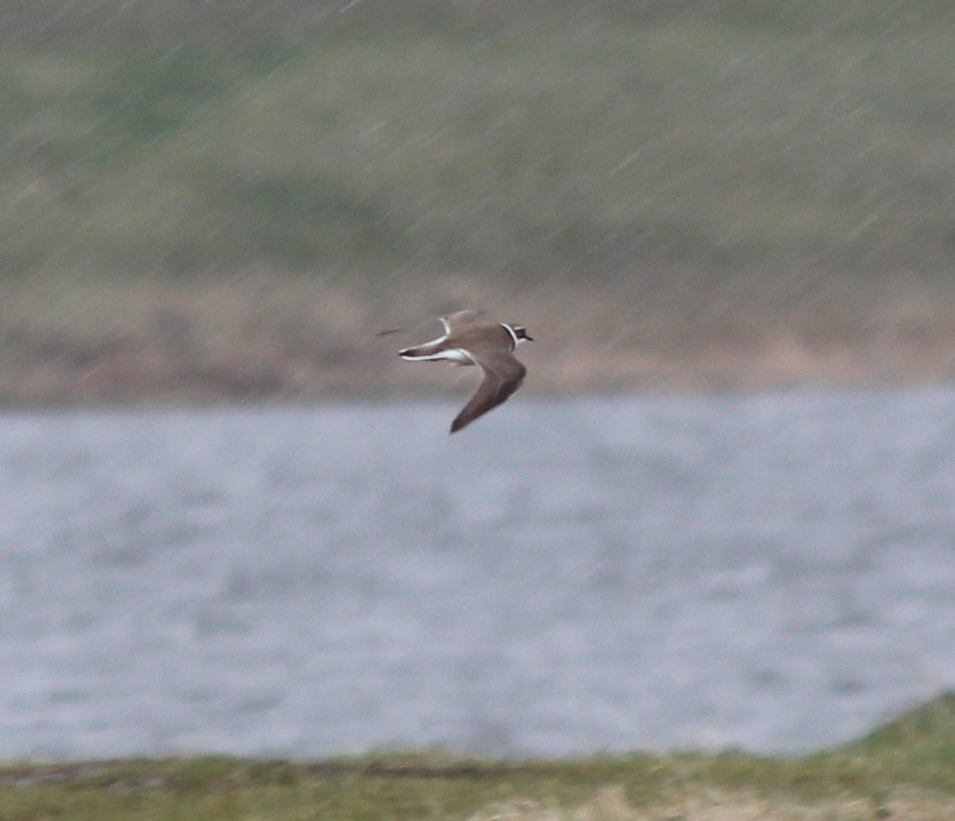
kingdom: Animalia
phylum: Chordata
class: Aves
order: Charadriiformes
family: Charadriidae
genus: Charadrius
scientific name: Charadrius dubius
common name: Little ringed plover
